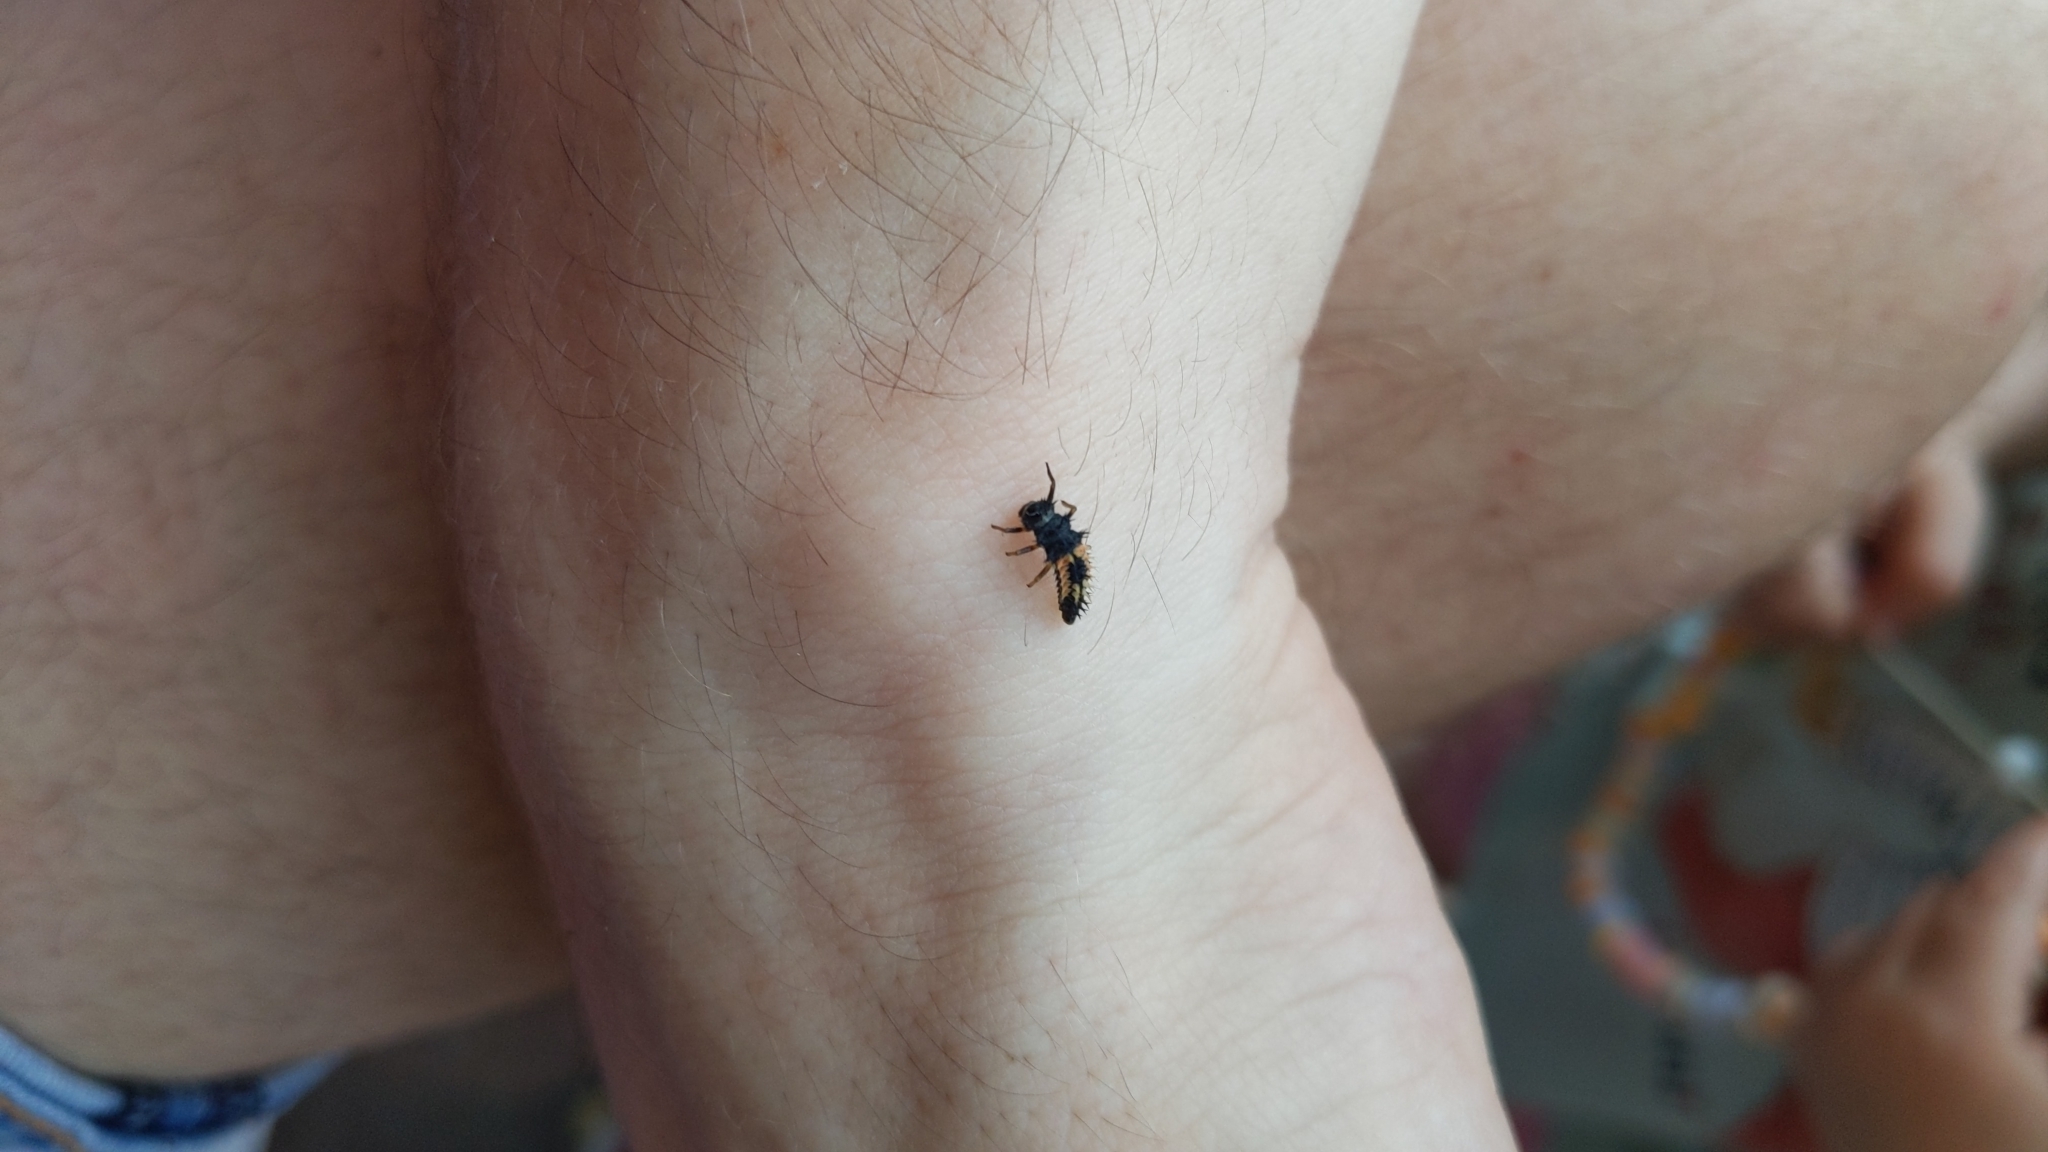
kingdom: Animalia
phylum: Arthropoda
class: Insecta
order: Coleoptera
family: Coccinellidae
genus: Harmonia
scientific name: Harmonia axyridis
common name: Harlequin ladybird
